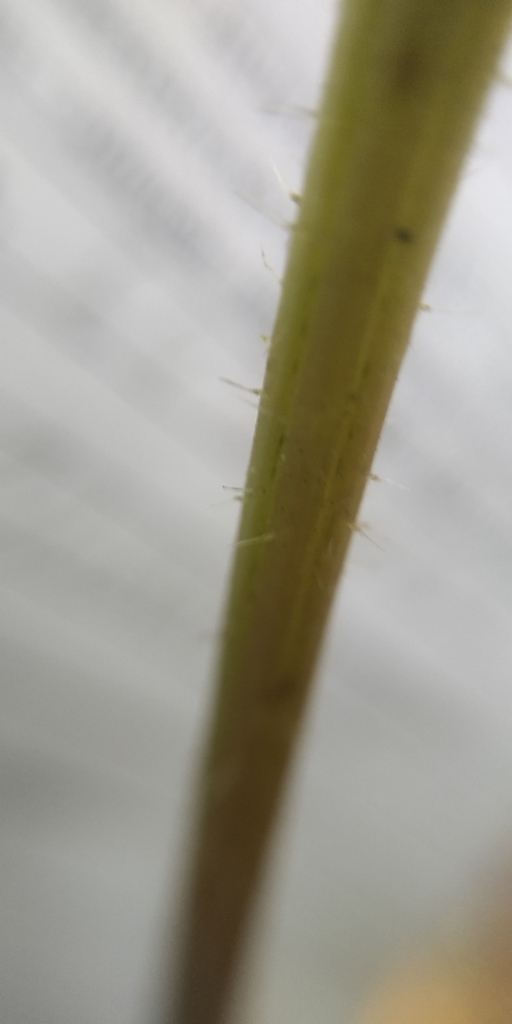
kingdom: Plantae
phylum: Tracheophyta
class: Magnoliopsida
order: Rosales
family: Urticaceae
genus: Urtica
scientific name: Urtica dioica
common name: Common nettle
